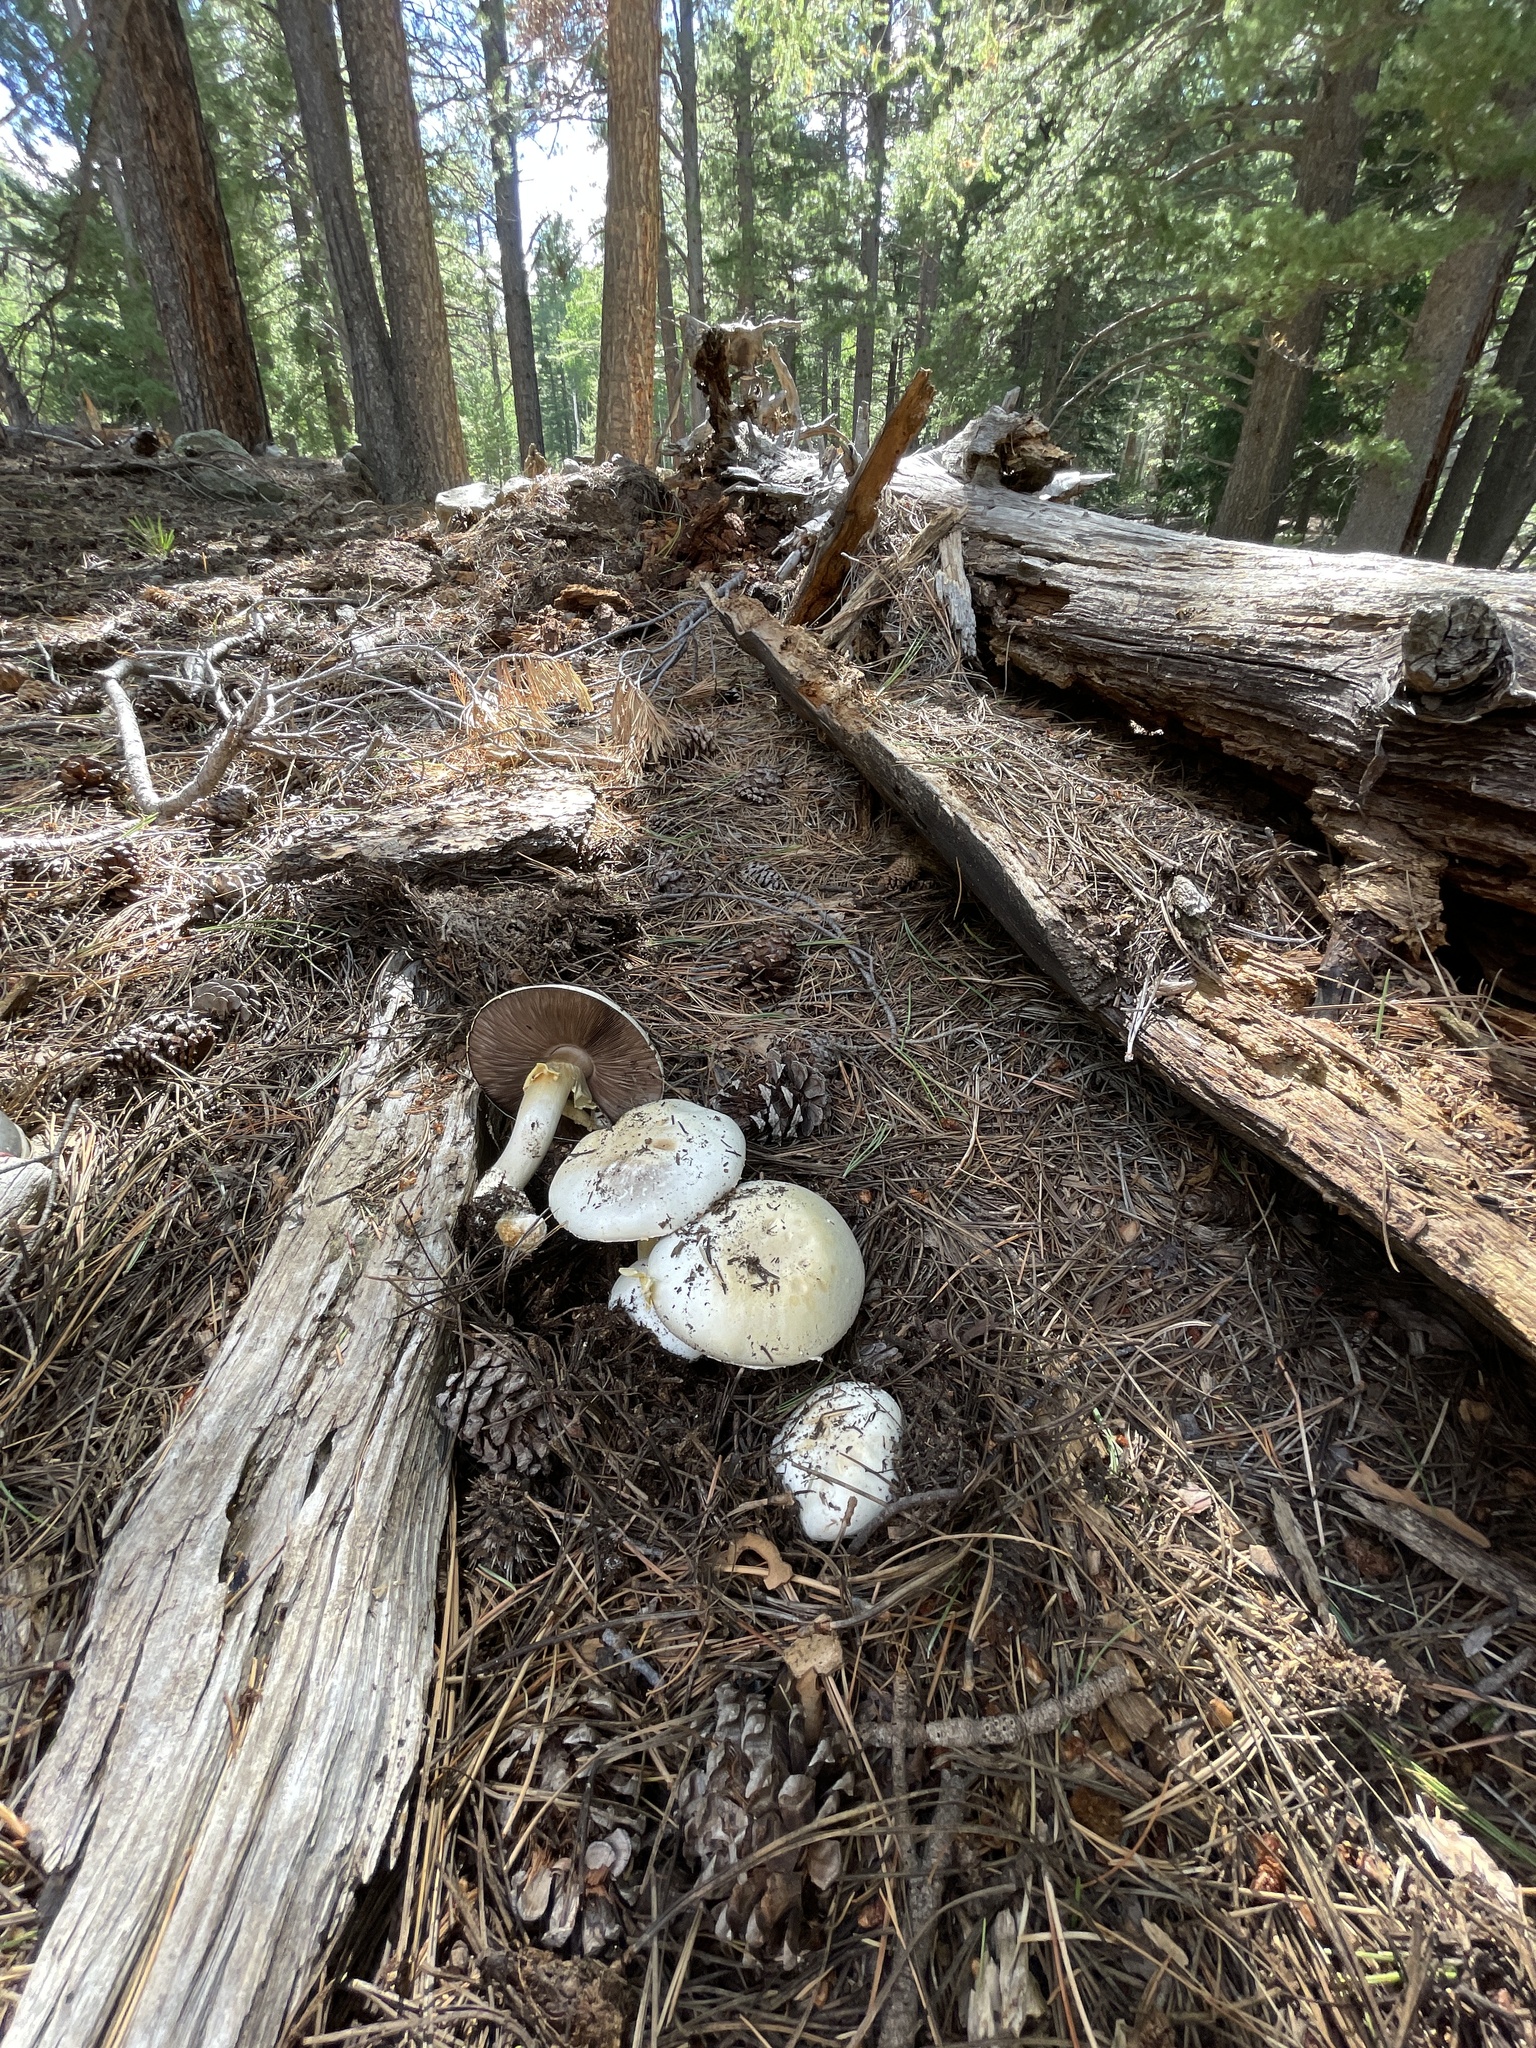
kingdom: Fungi
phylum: Basidiomycota
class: Agaricomycetes
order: Agaricales
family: Agaricaceae
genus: Agaricus
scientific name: Agaricus didymus
